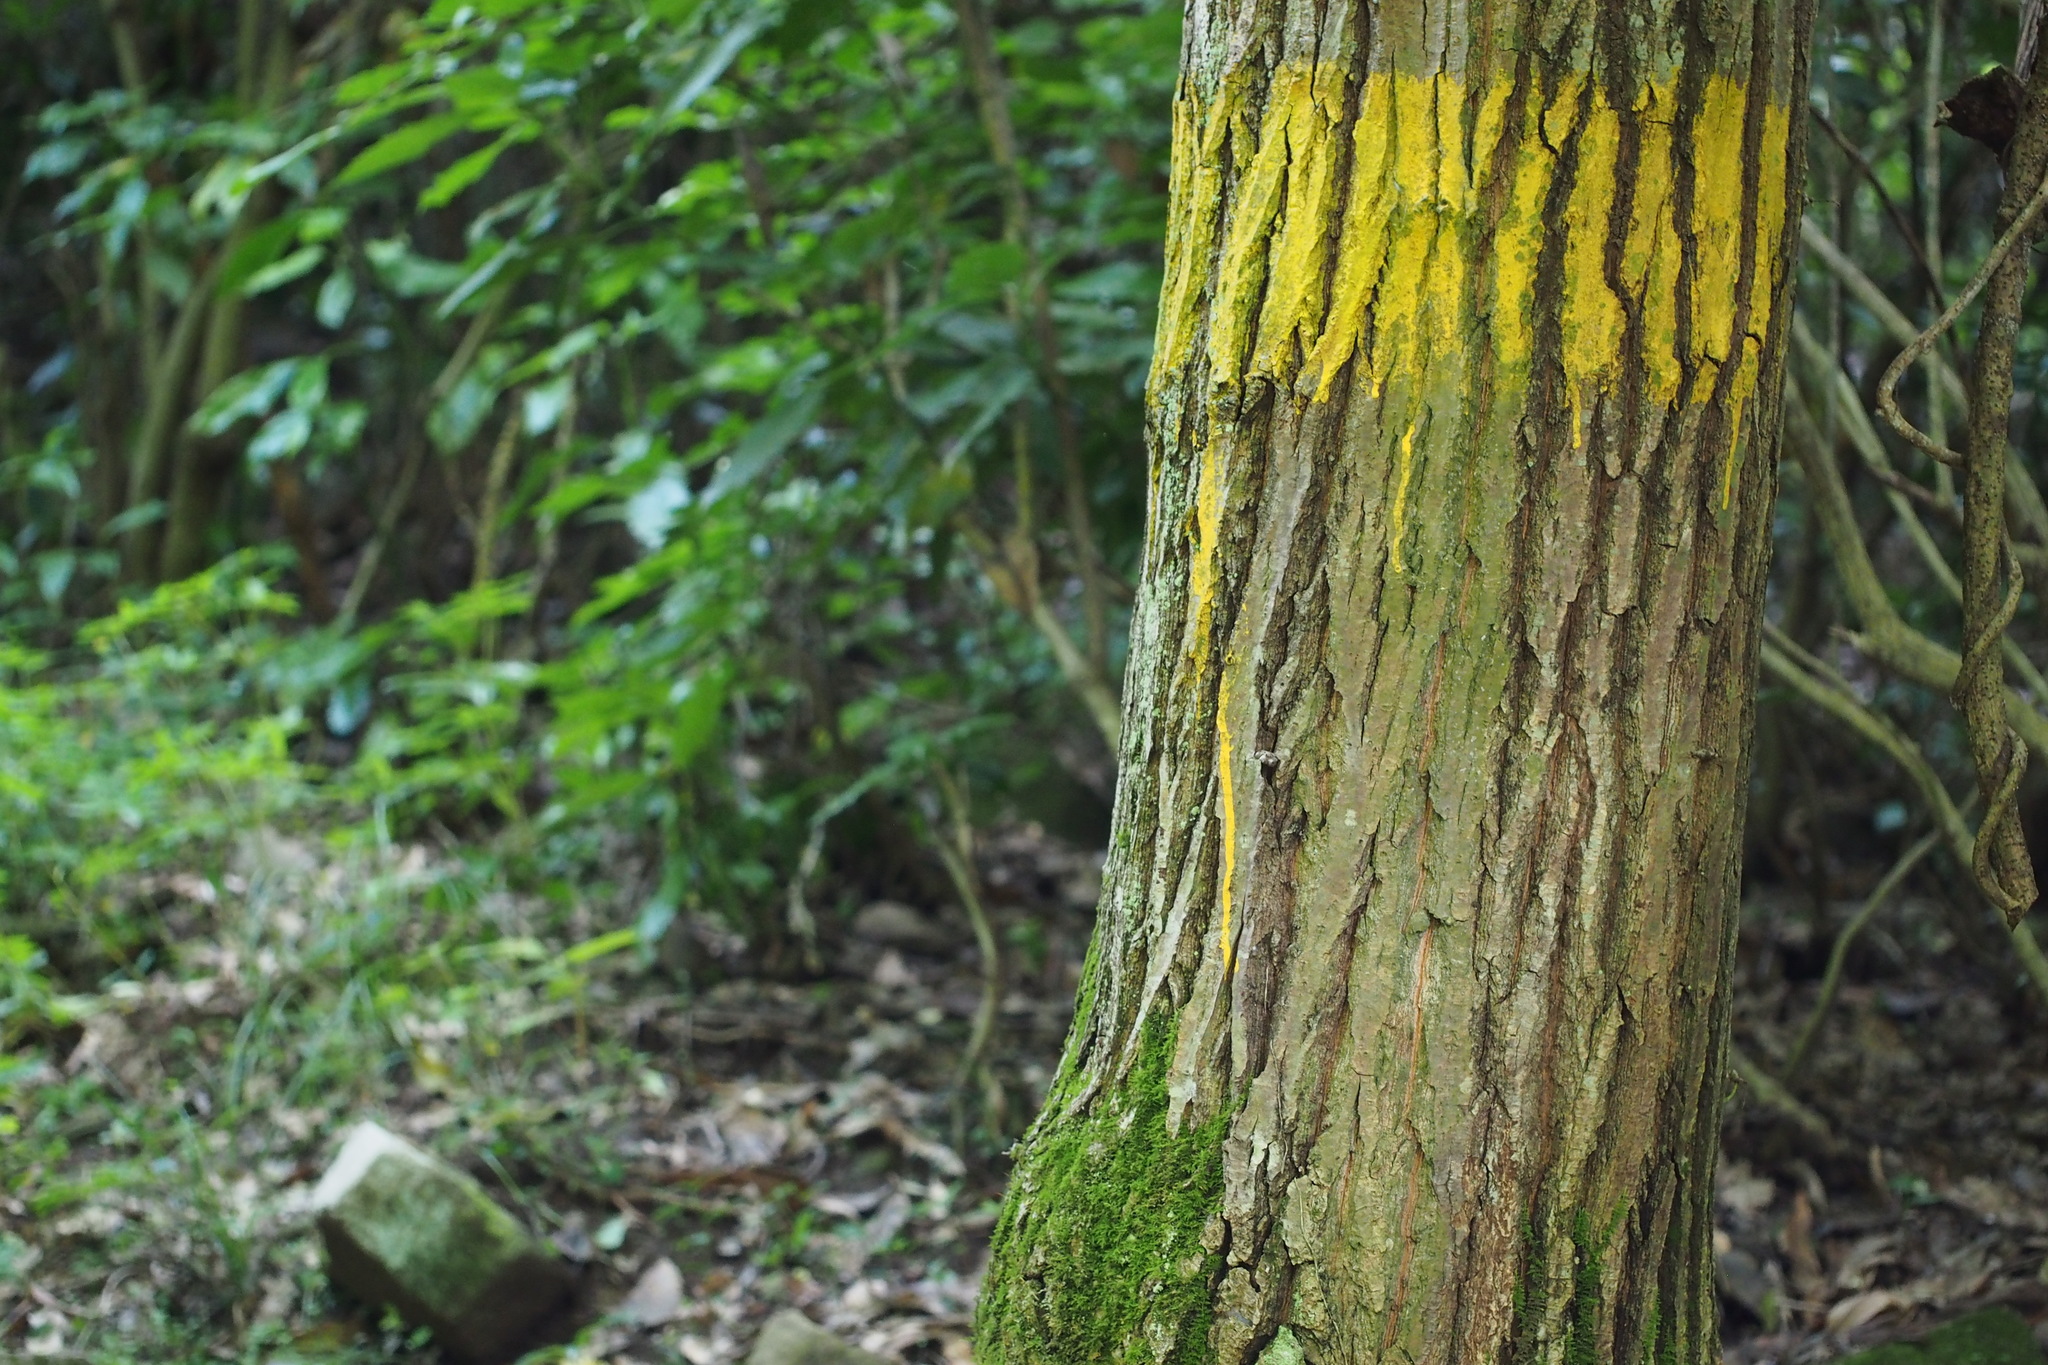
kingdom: Plantae
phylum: Tracheophyta
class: Magnoliopsida
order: Fagales
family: Fagaceae
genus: Quercus
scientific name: Quercus acutissima
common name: Sawtooth oak
